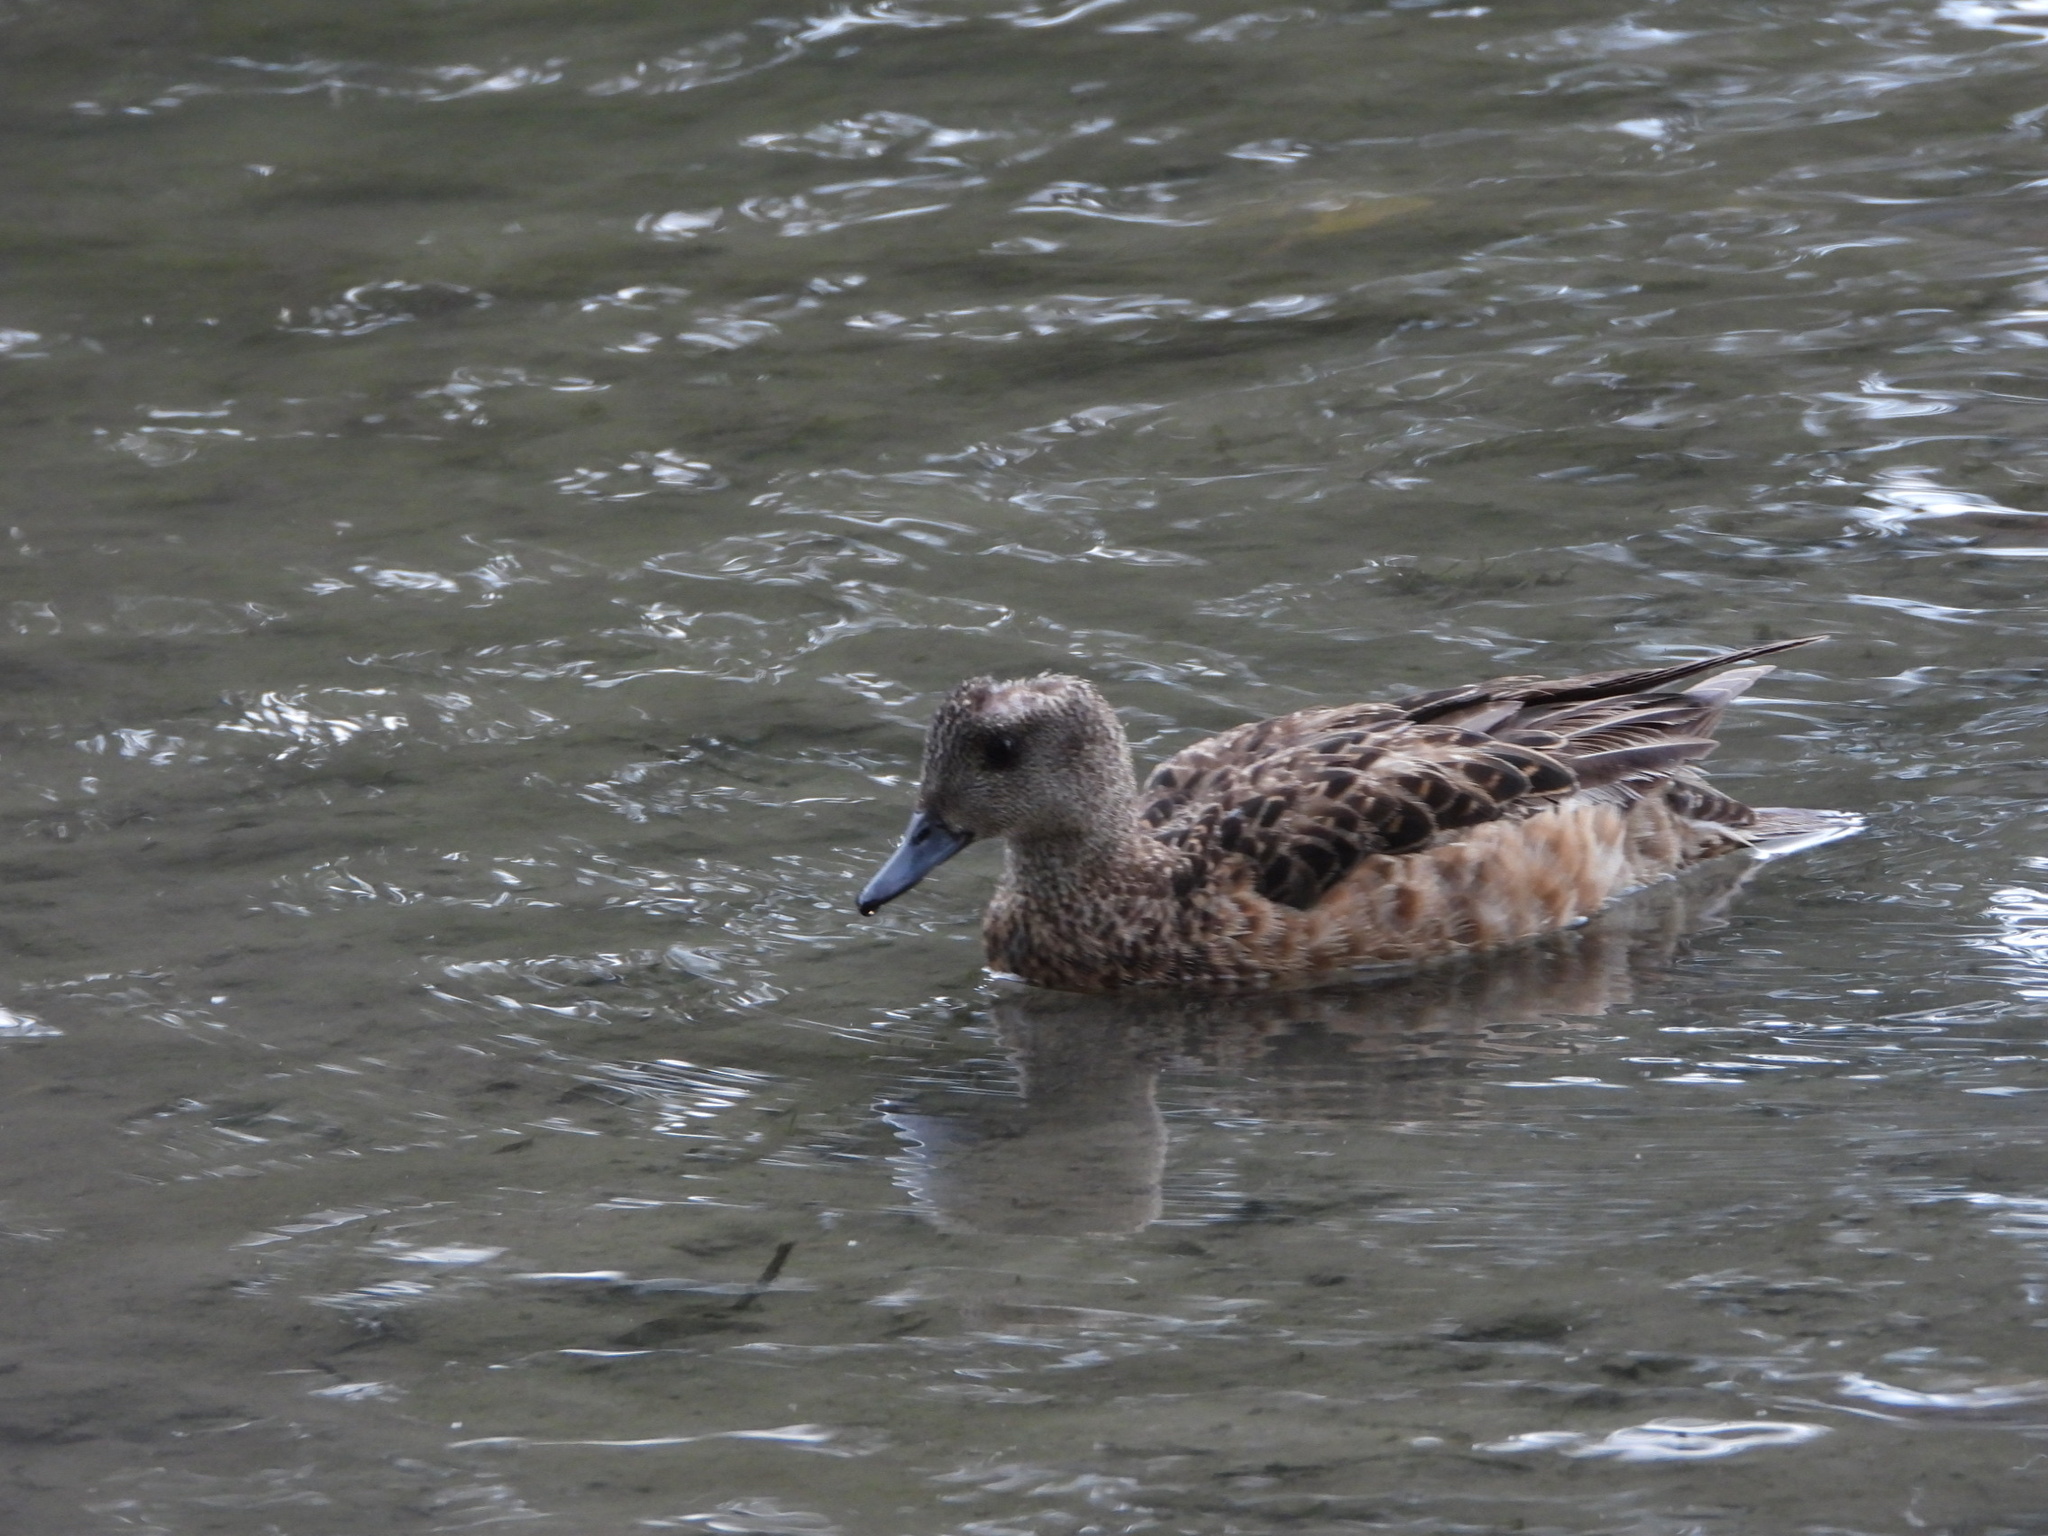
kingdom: Animalia
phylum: Chordata
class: Aves
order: Anseriformes
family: Anatidae
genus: Mareca
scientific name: Mareca americana
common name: American wigeon
